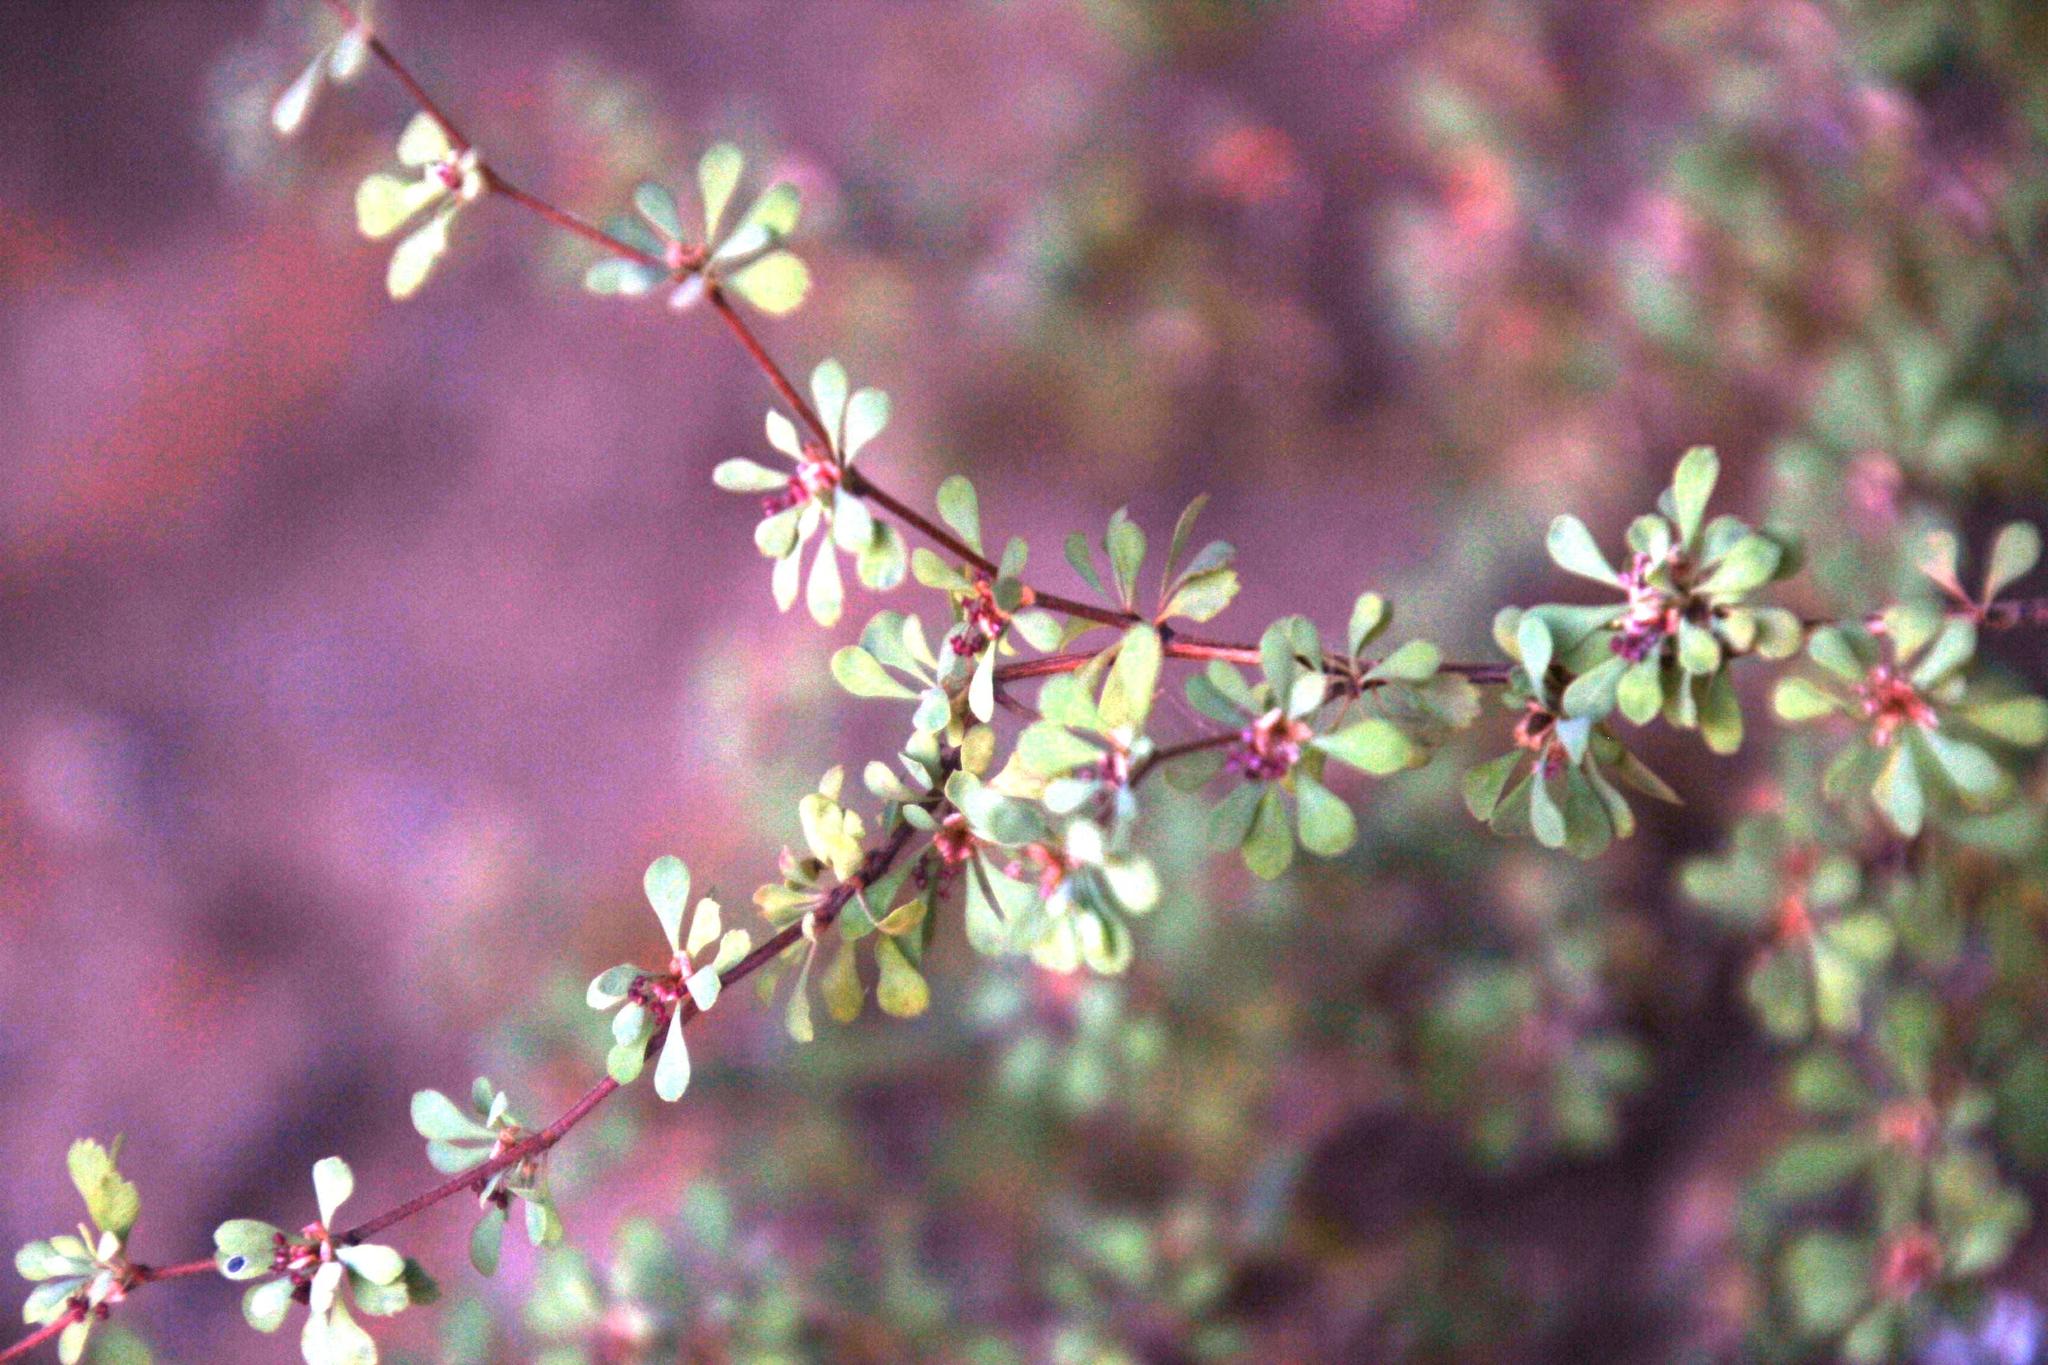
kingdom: Plantae
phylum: Tracheophyta
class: Magnoliopsida
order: Rosales
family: Rosaceae
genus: Cliffortia
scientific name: Cliffortia propinqua
